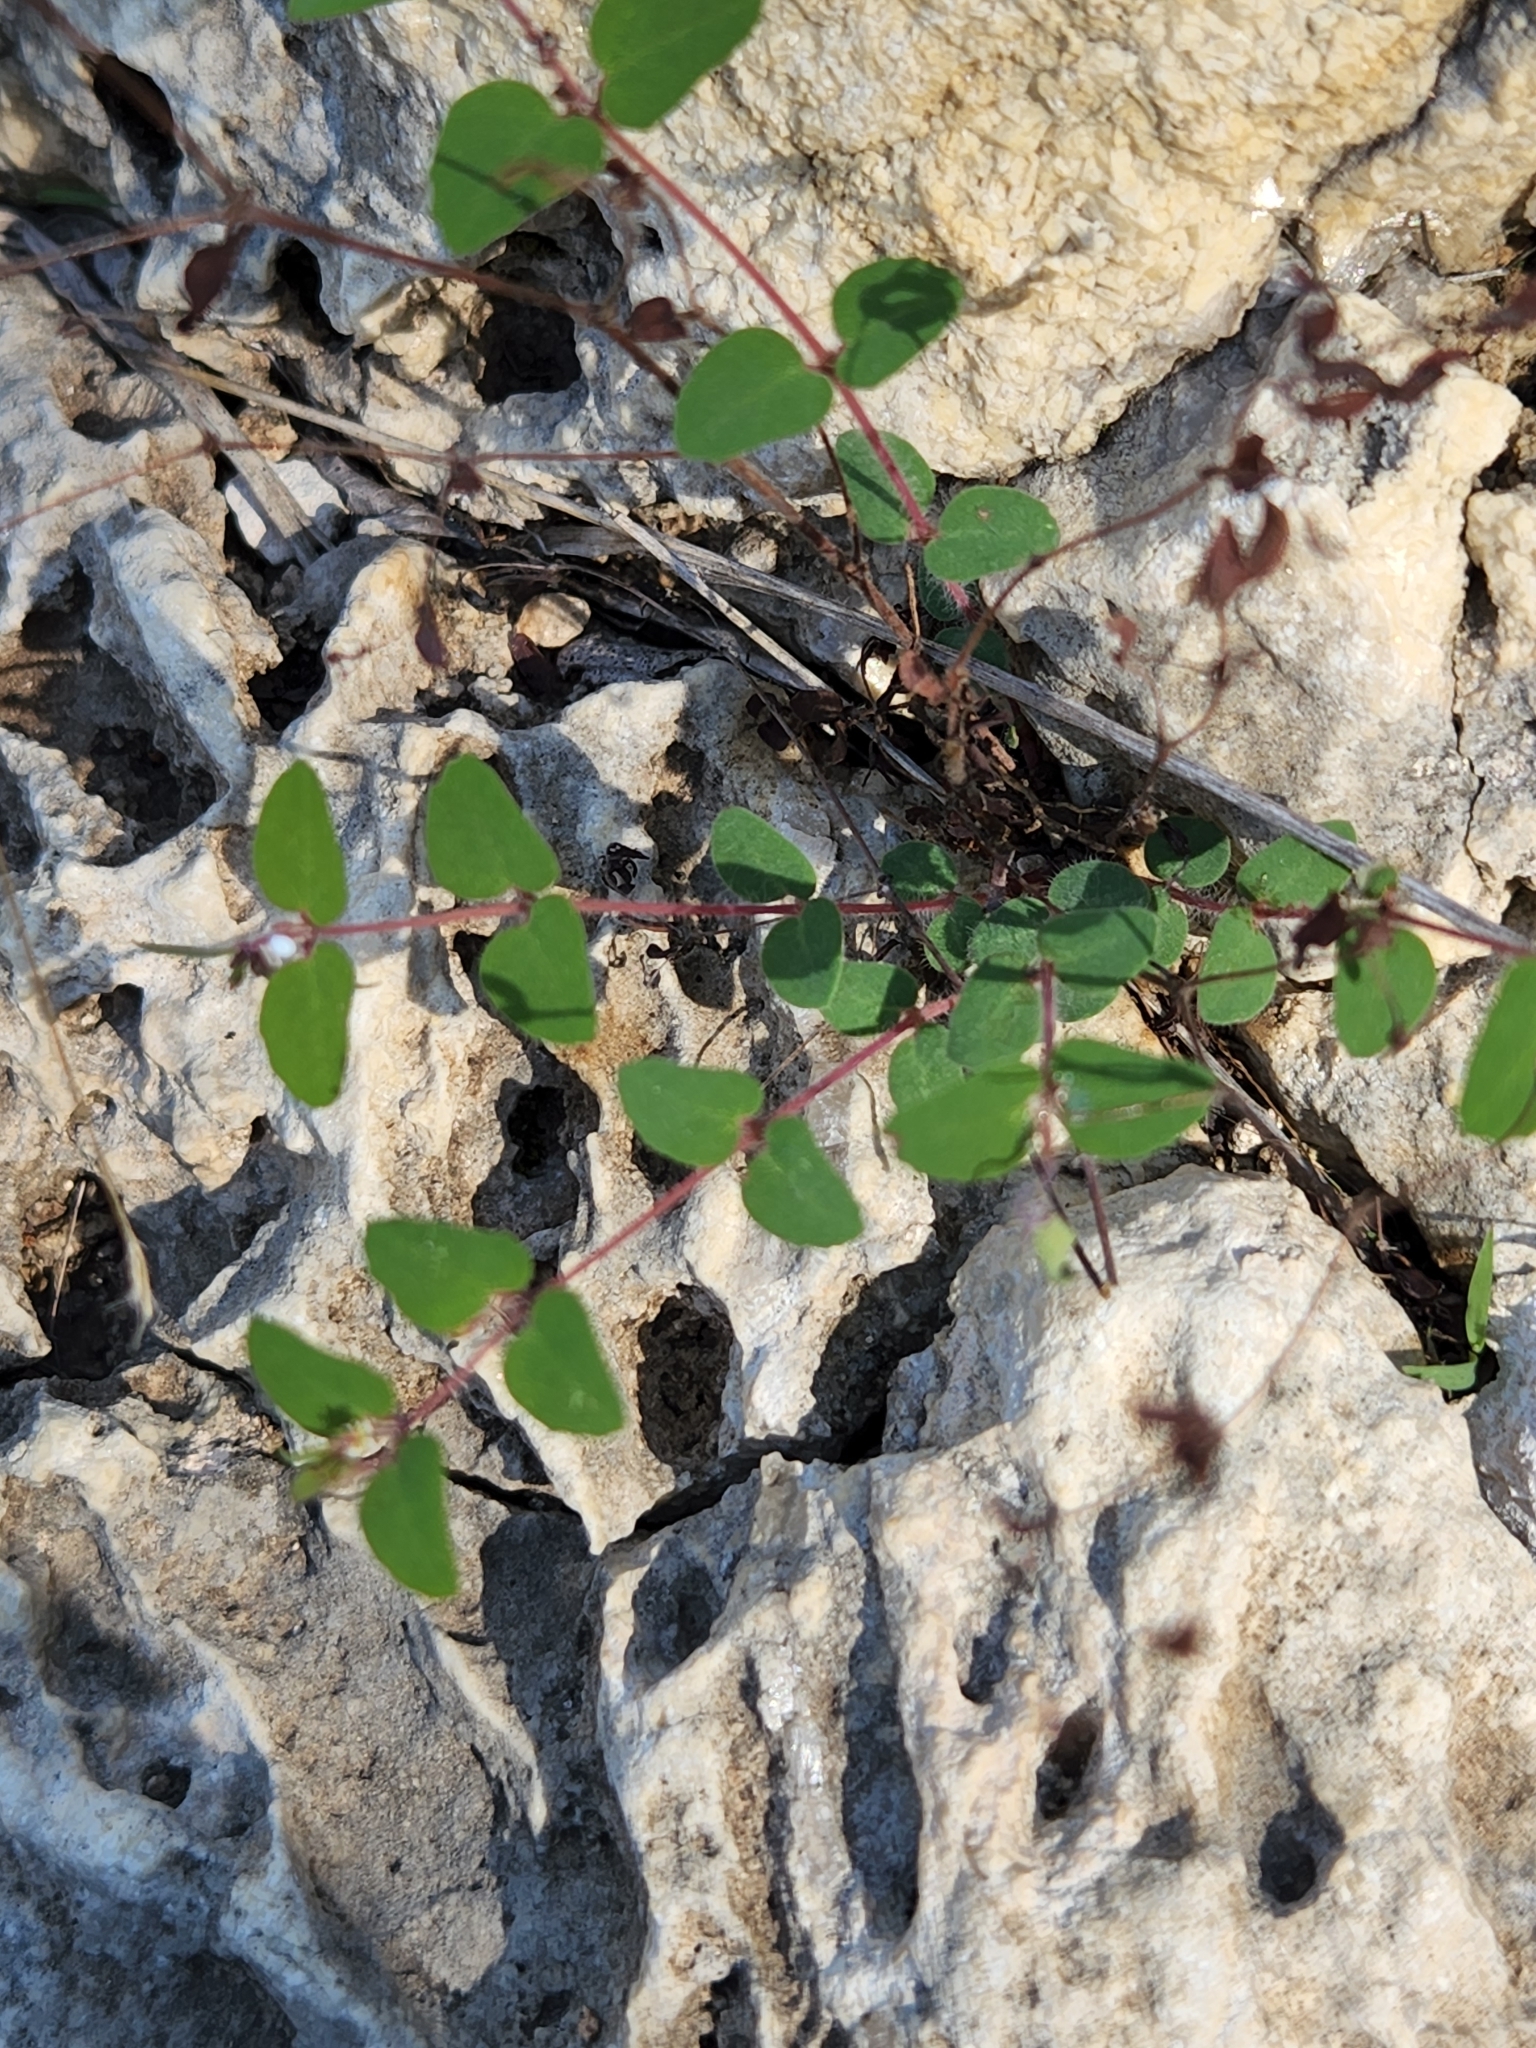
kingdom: Plantae
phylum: Tracheophyta
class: Magnoliopsida
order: Malpighiales
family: Euphorbiaceae
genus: Euphorbia
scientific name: Euphorbia villifera
